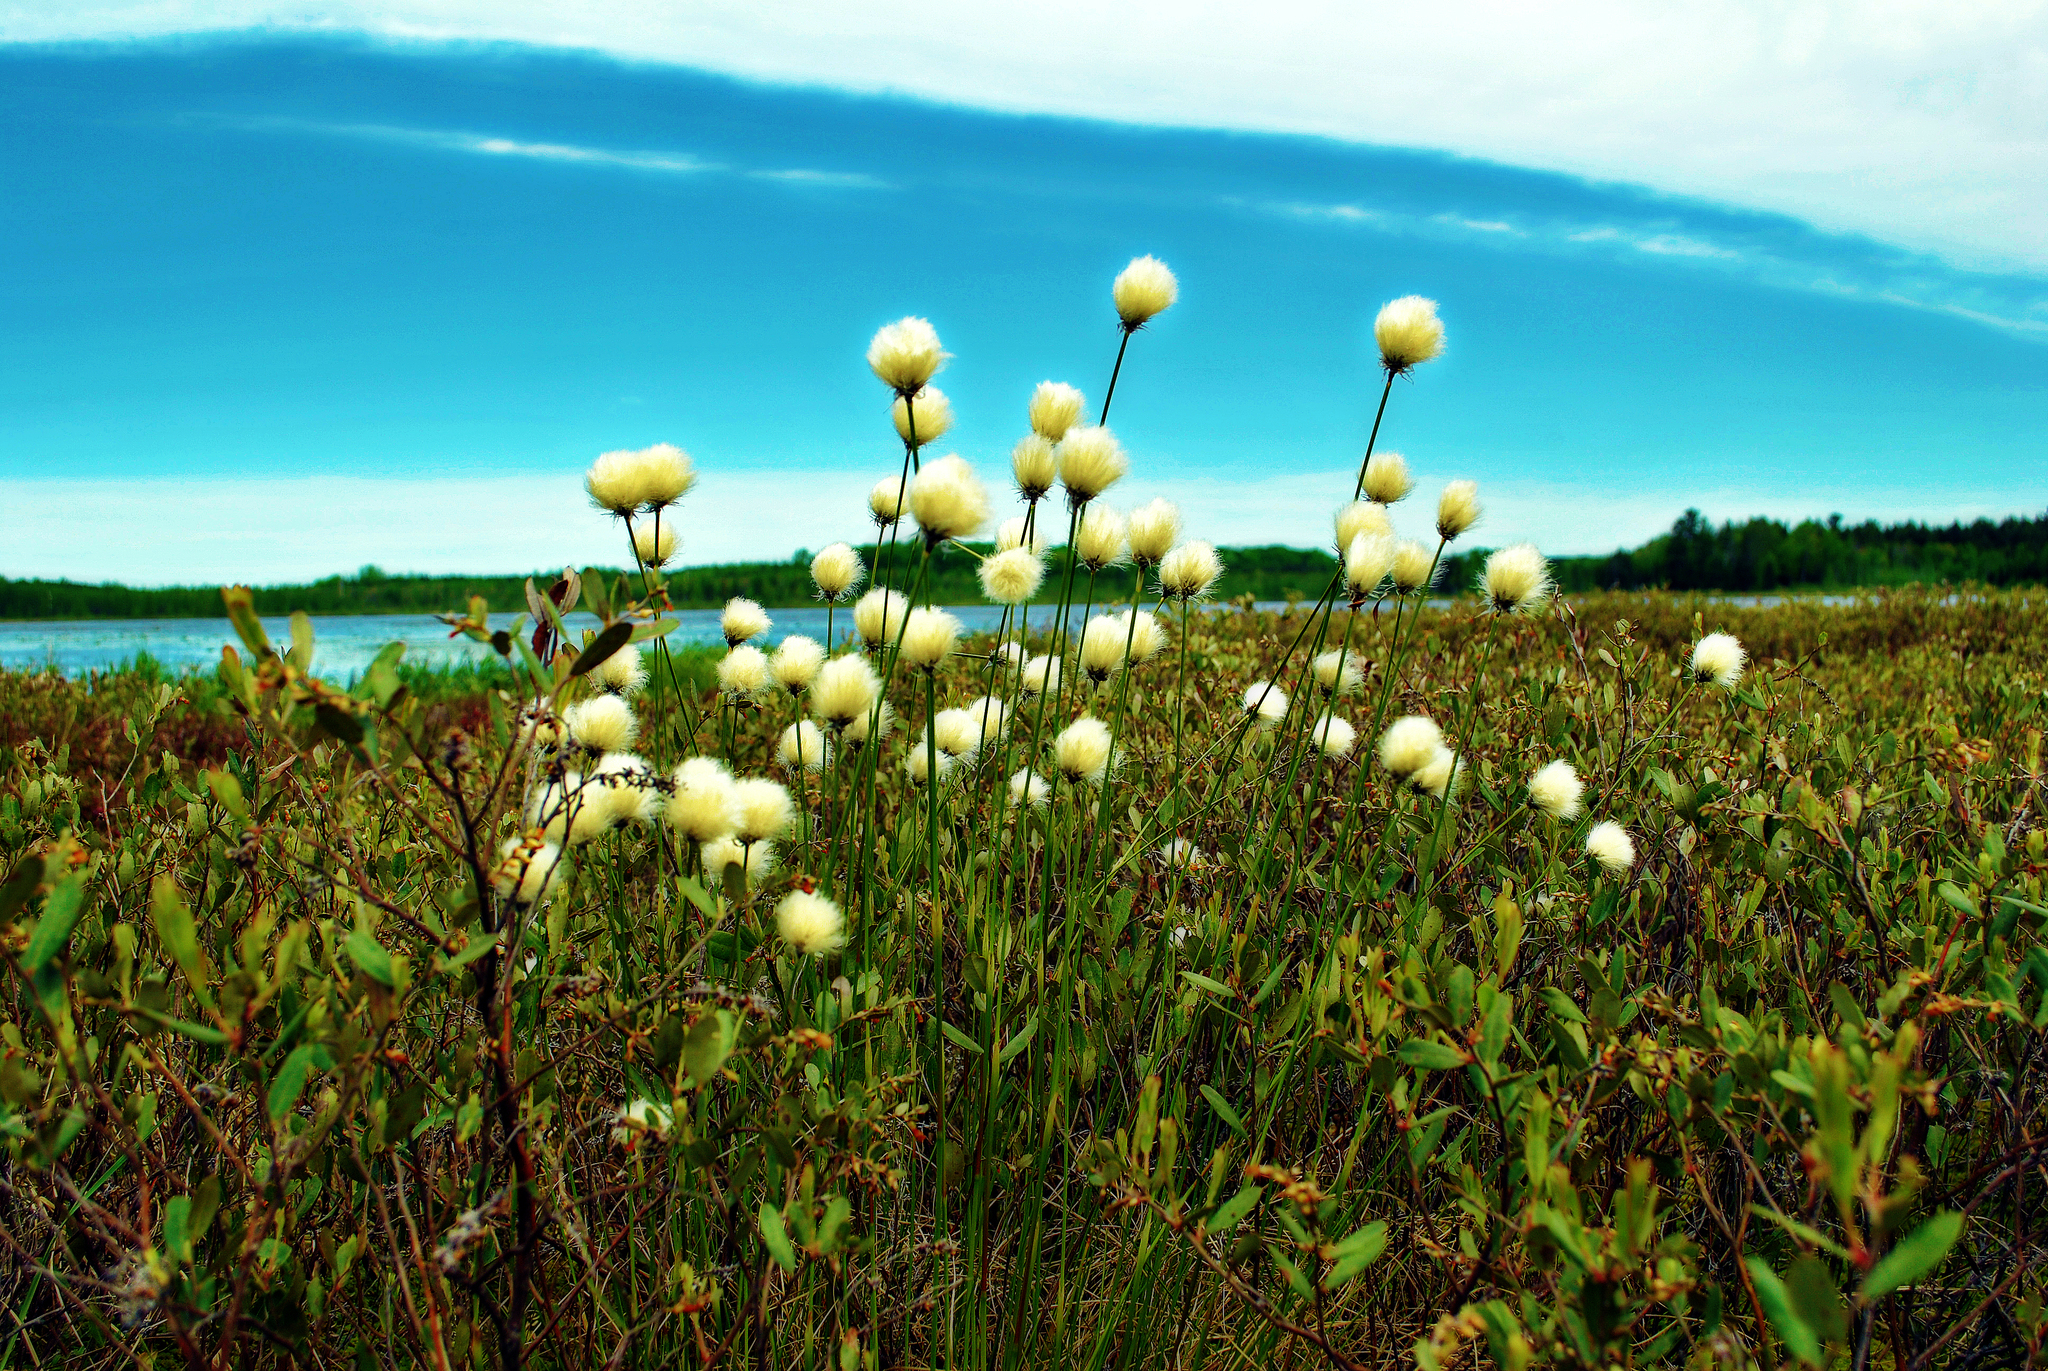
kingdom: Plantae
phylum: Tracheophyta
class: Liliopsida
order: Poales
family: Cyperaceae
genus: Eriophorum
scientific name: Eriophorum vaginatum
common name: Hare's-tail cottongrass
